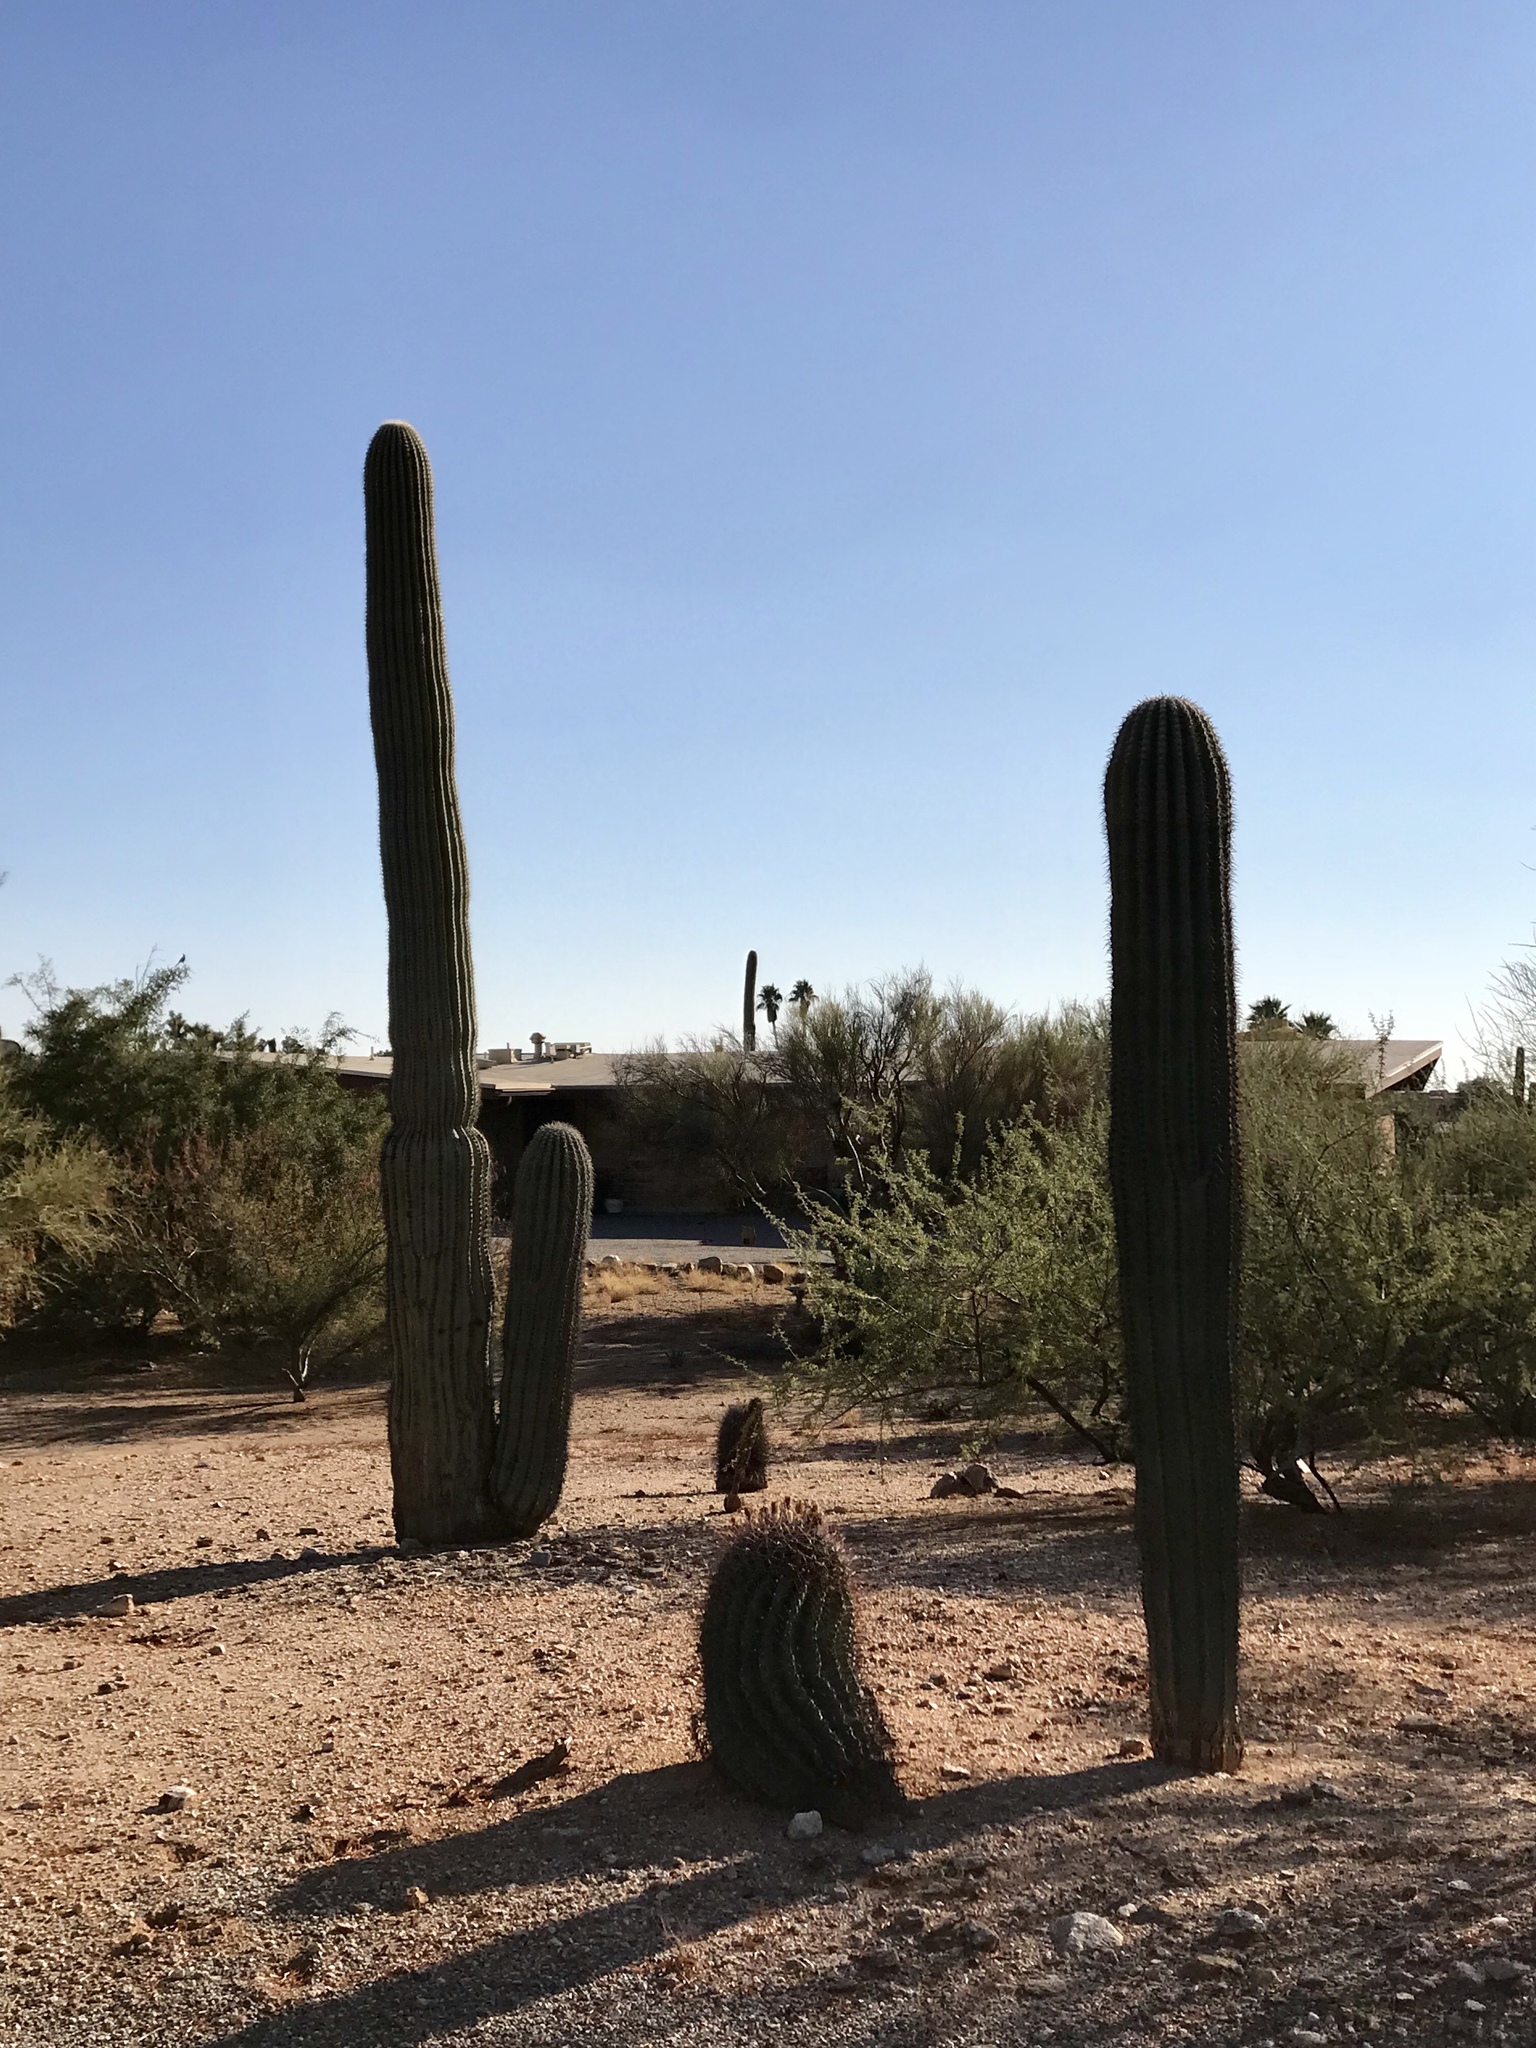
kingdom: Plantae
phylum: Tracheophyta
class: Magnoliopsida
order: Caryophyllales
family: Cactaceae
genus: Ferocactus
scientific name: Ferocactus wislizeni
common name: Candy barrel cactus
